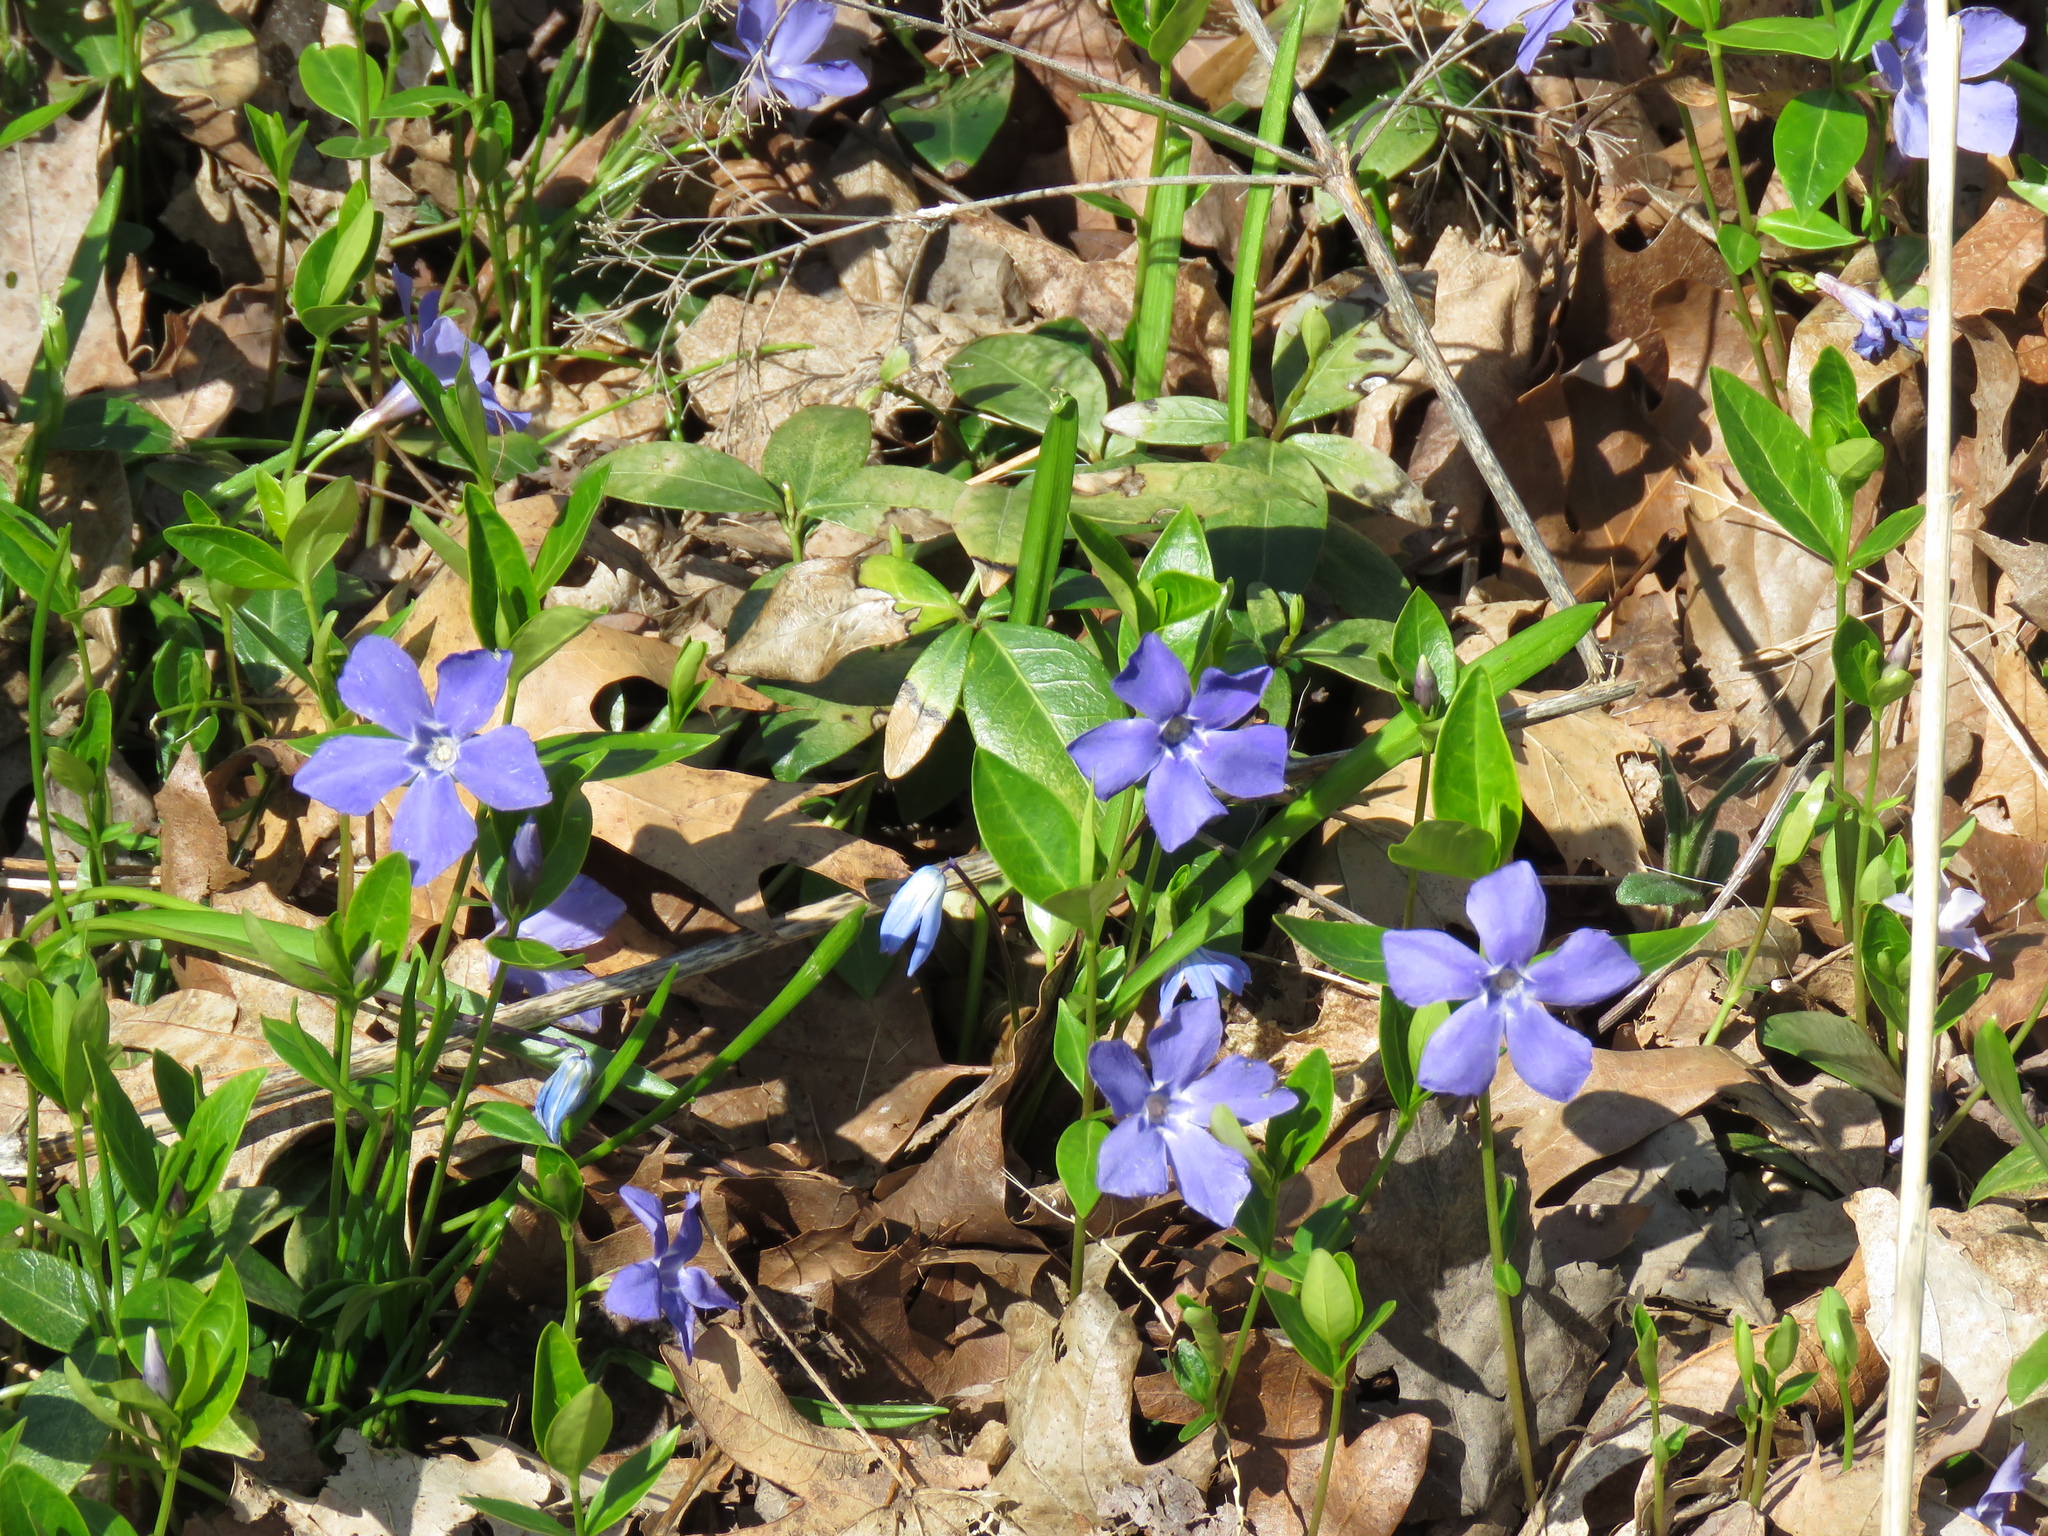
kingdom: Plantae
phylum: Tracheophyta
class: Magnoliopsida
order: Gentianales
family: Apocynaceae
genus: Vinca
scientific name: Vinca minor
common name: Lesser periwinkle
